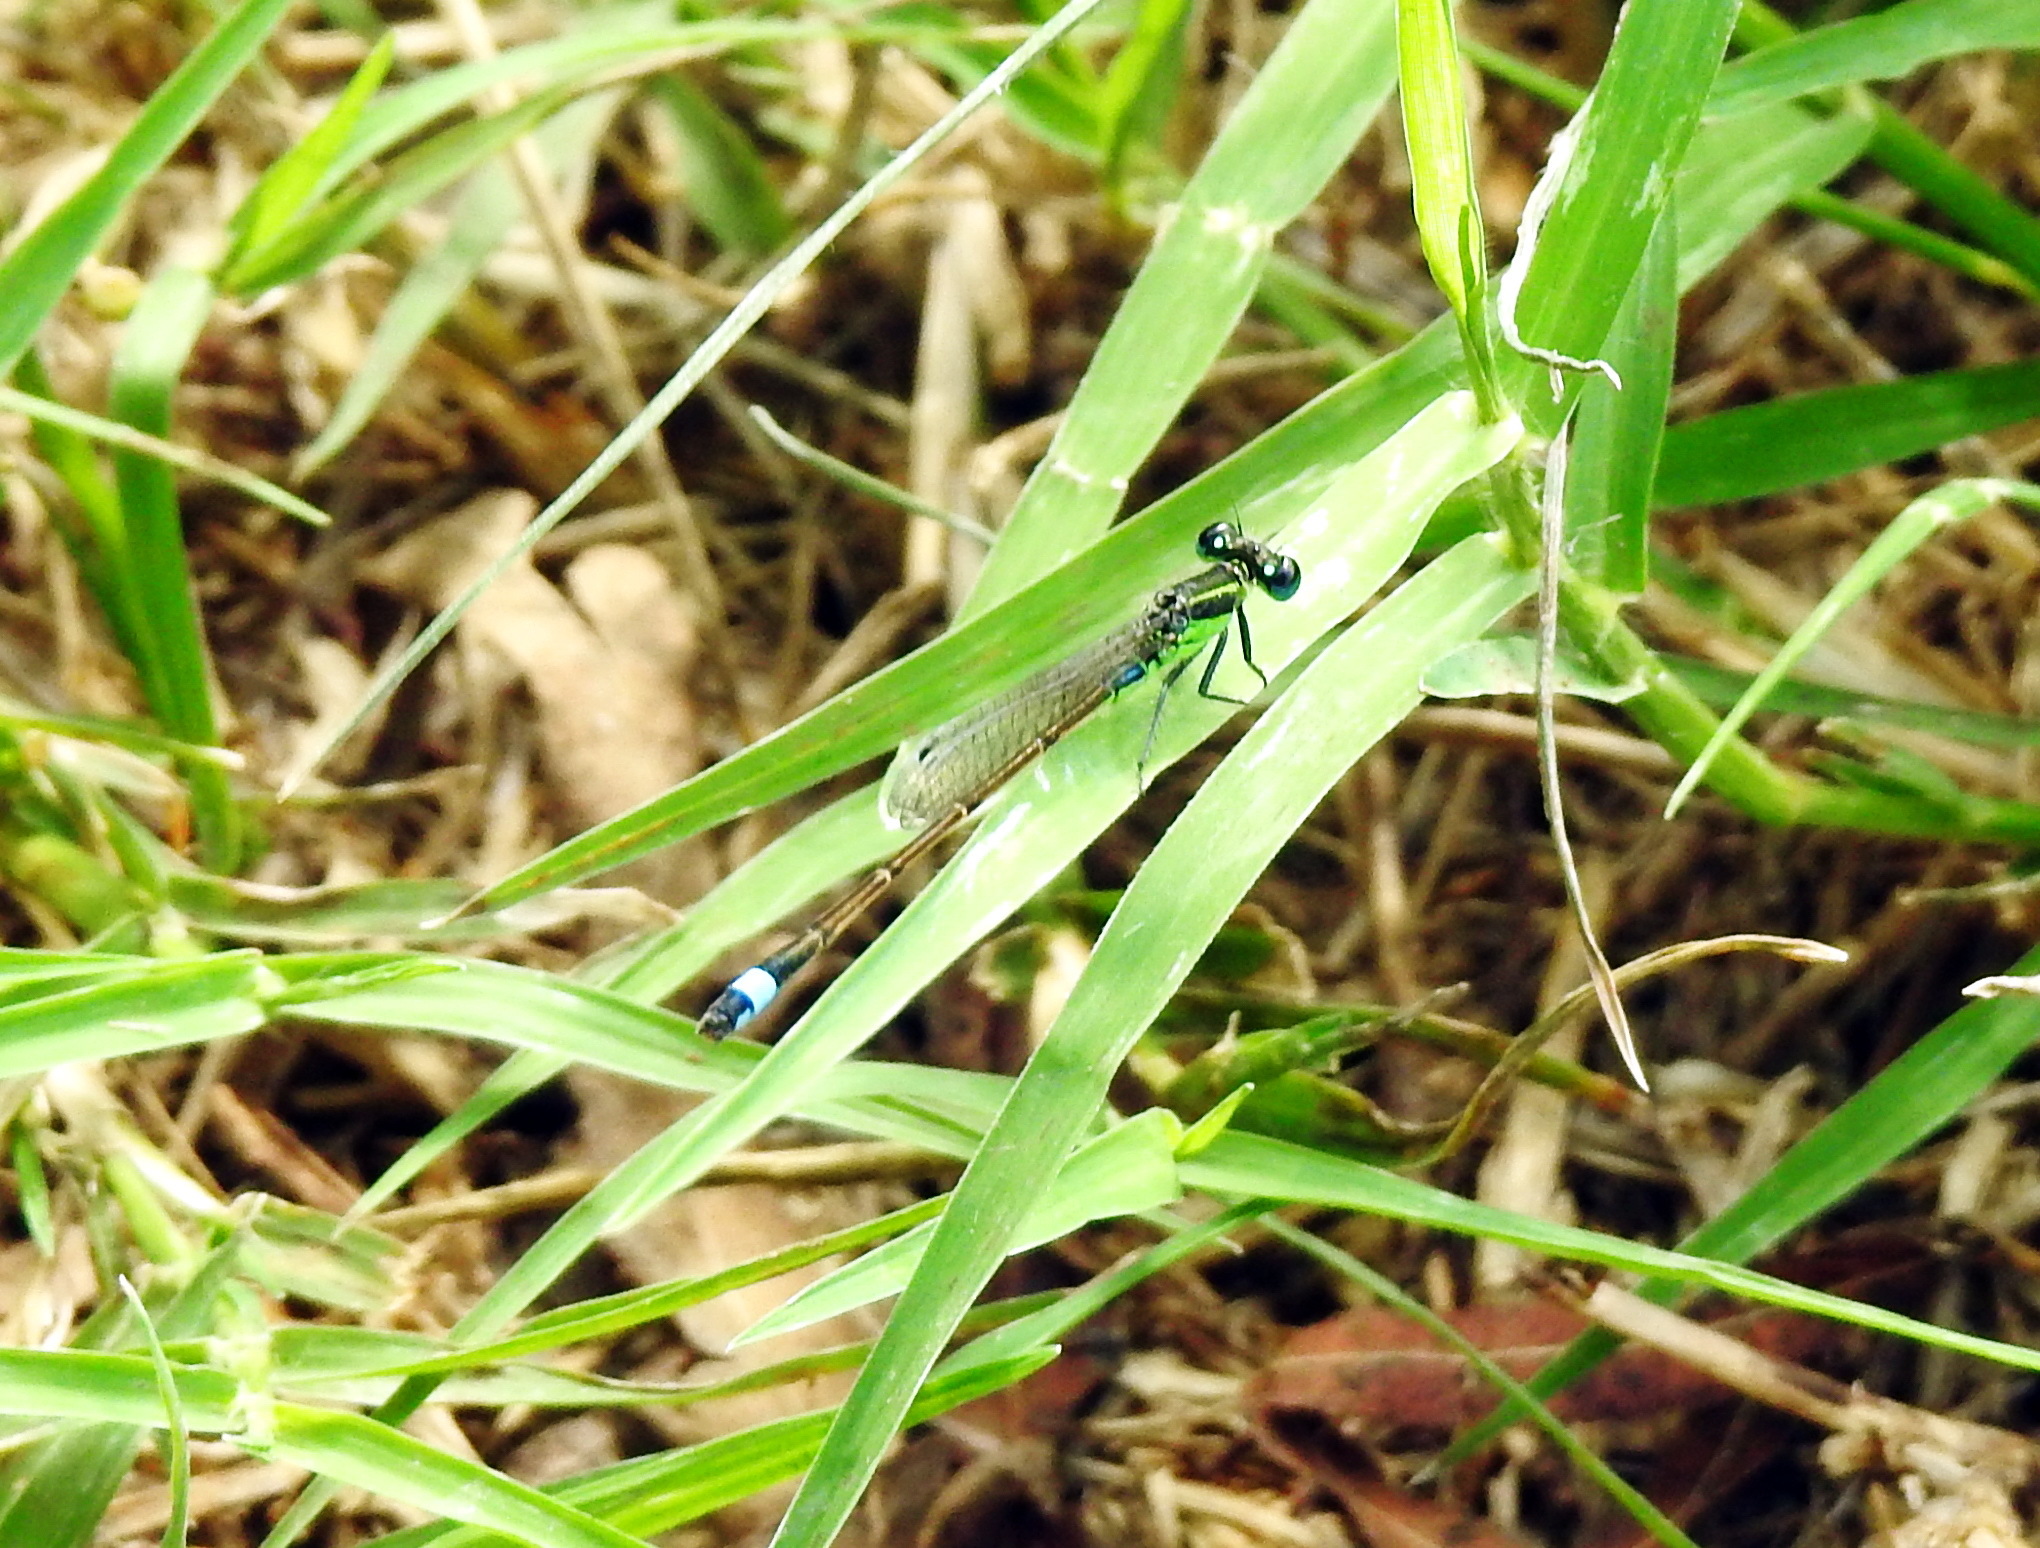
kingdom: Animalia
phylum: Arthropoda
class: Insecta
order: Odonata
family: Coenagrionidae
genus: Ischnura
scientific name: Ischnura ramburii
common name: Rambur's forktail
